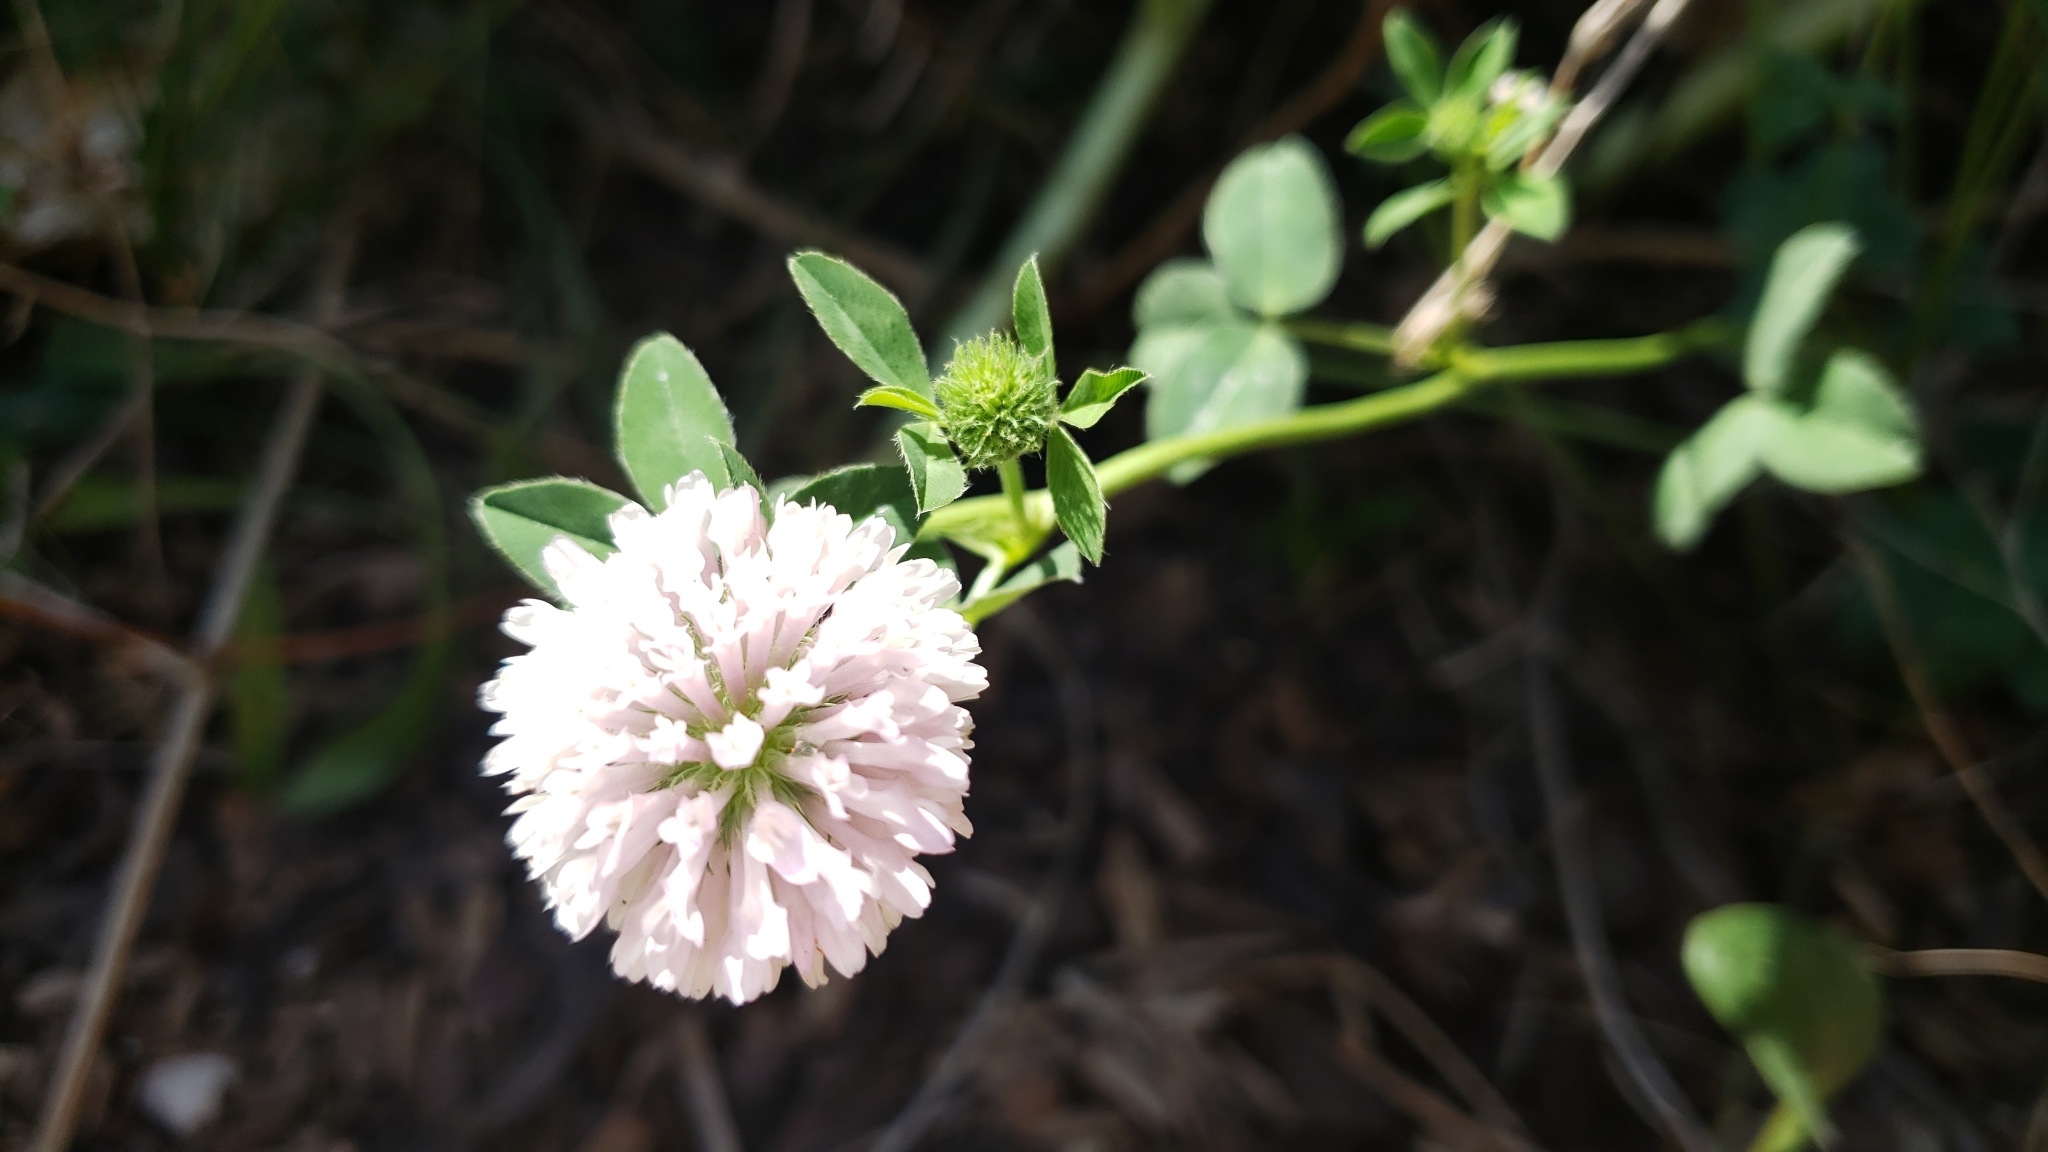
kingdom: Plantae
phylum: Tracheophyta
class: Magnoliopsida
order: Fabales
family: Fabaceae
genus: Trifolium
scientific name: Trifolium pratense
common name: Red clover
